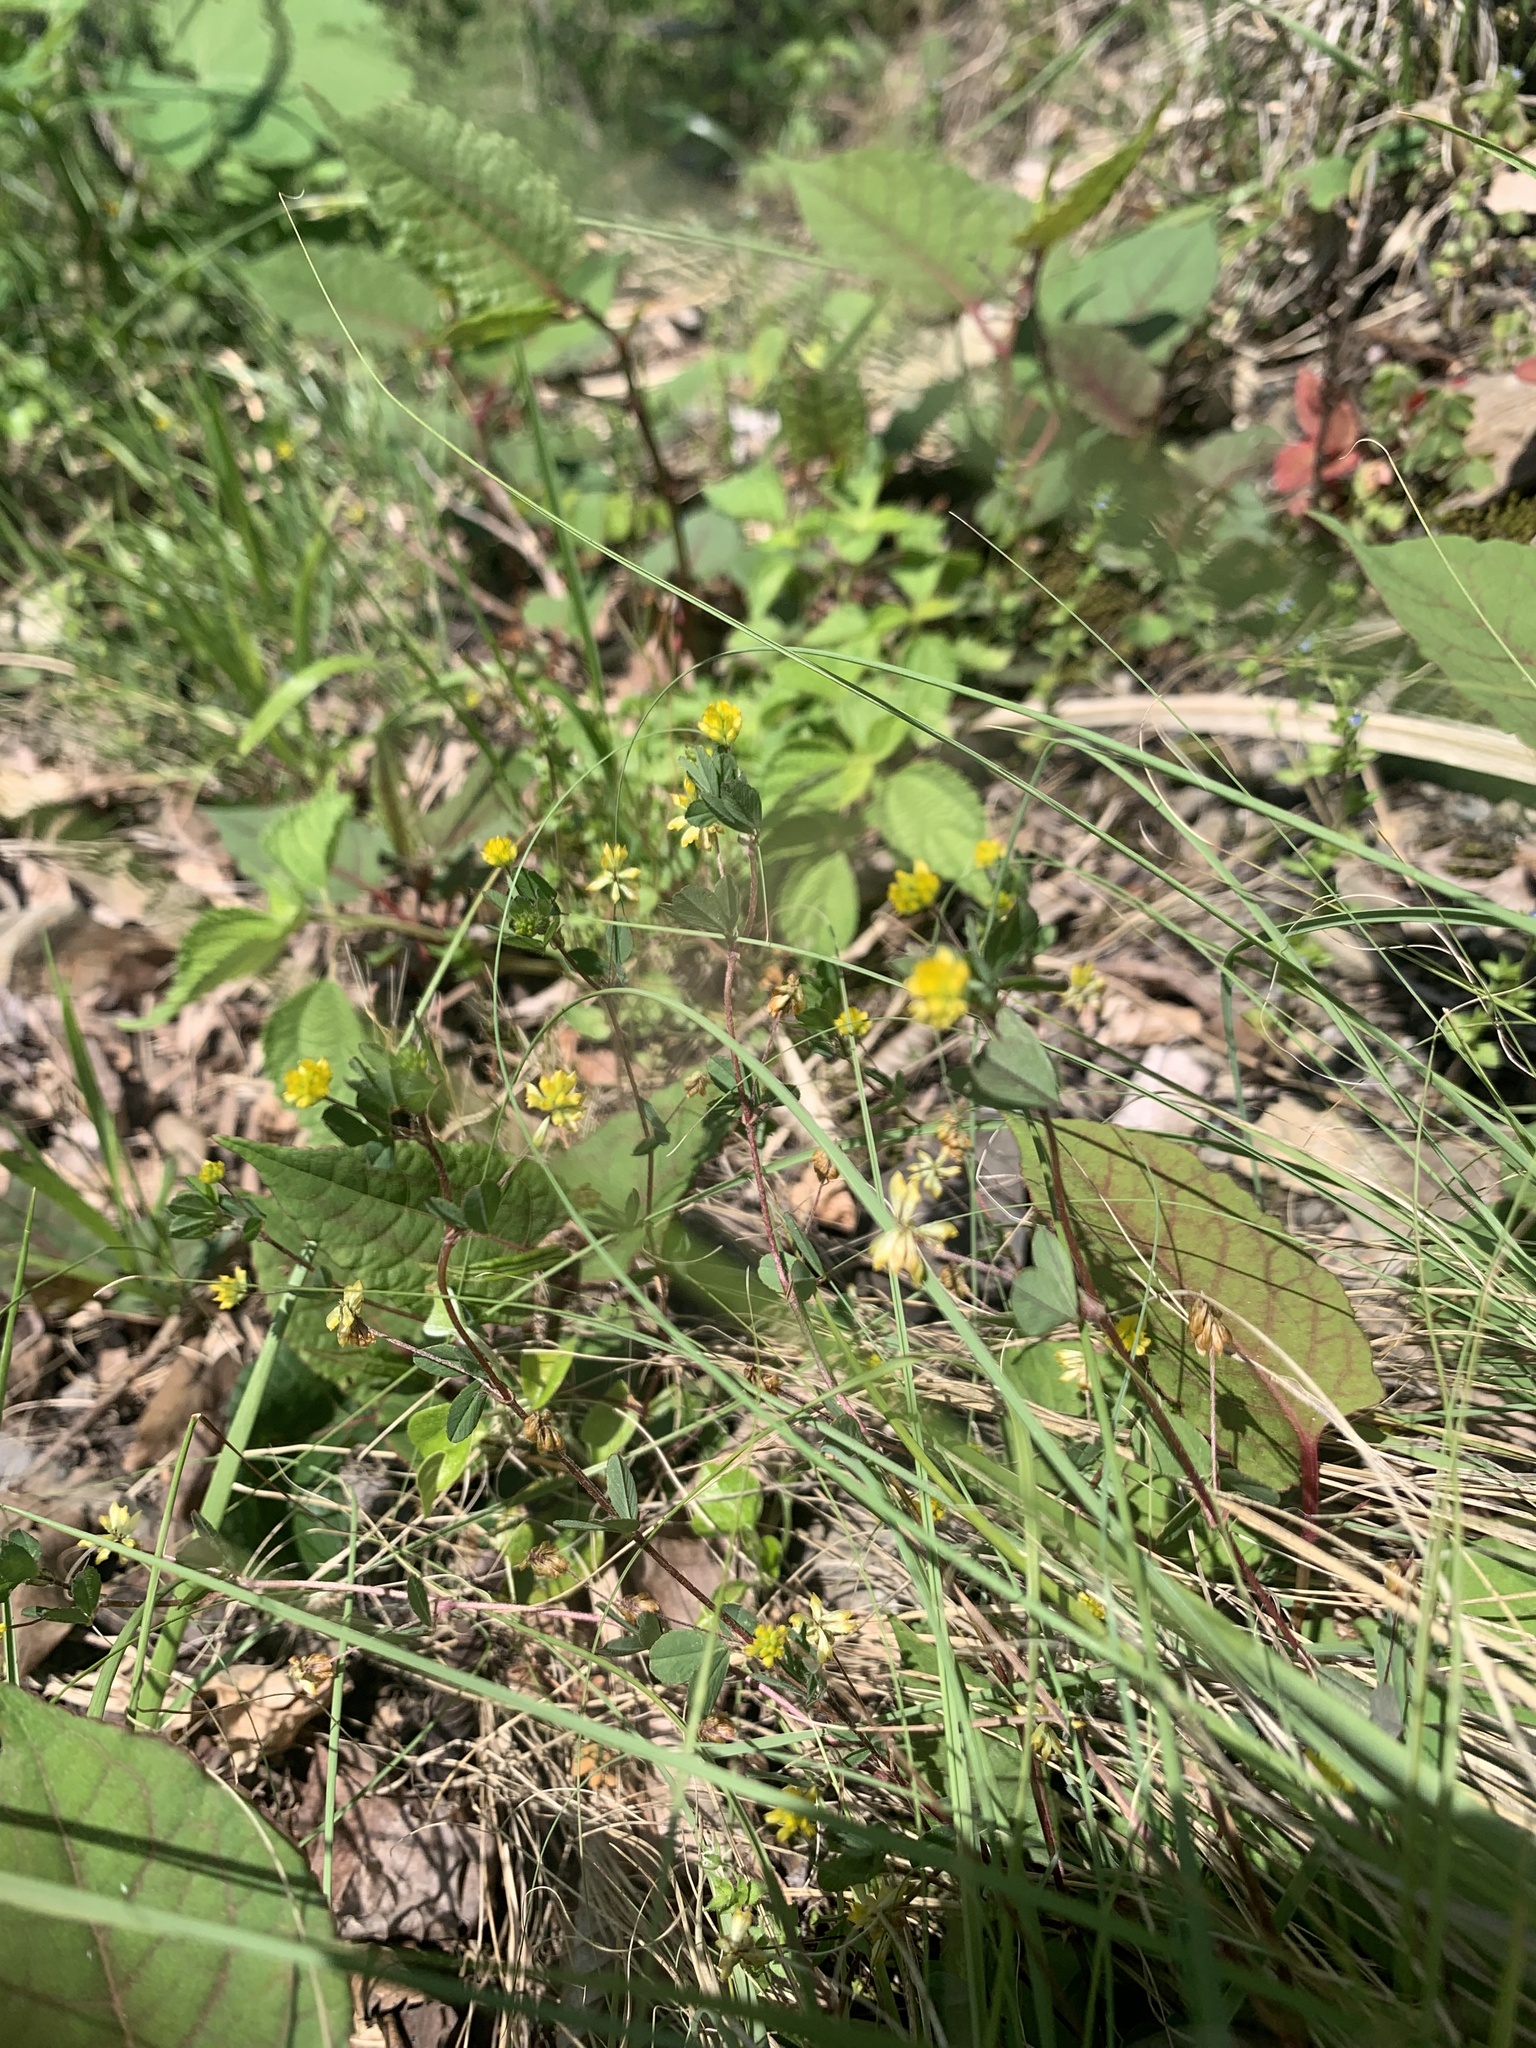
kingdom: Plantae
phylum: Tracheophyta
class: Magnoliopsida
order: Fabales
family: Fabaceae
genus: Trifolium
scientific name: Trifolium dubium
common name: Suckling clover
